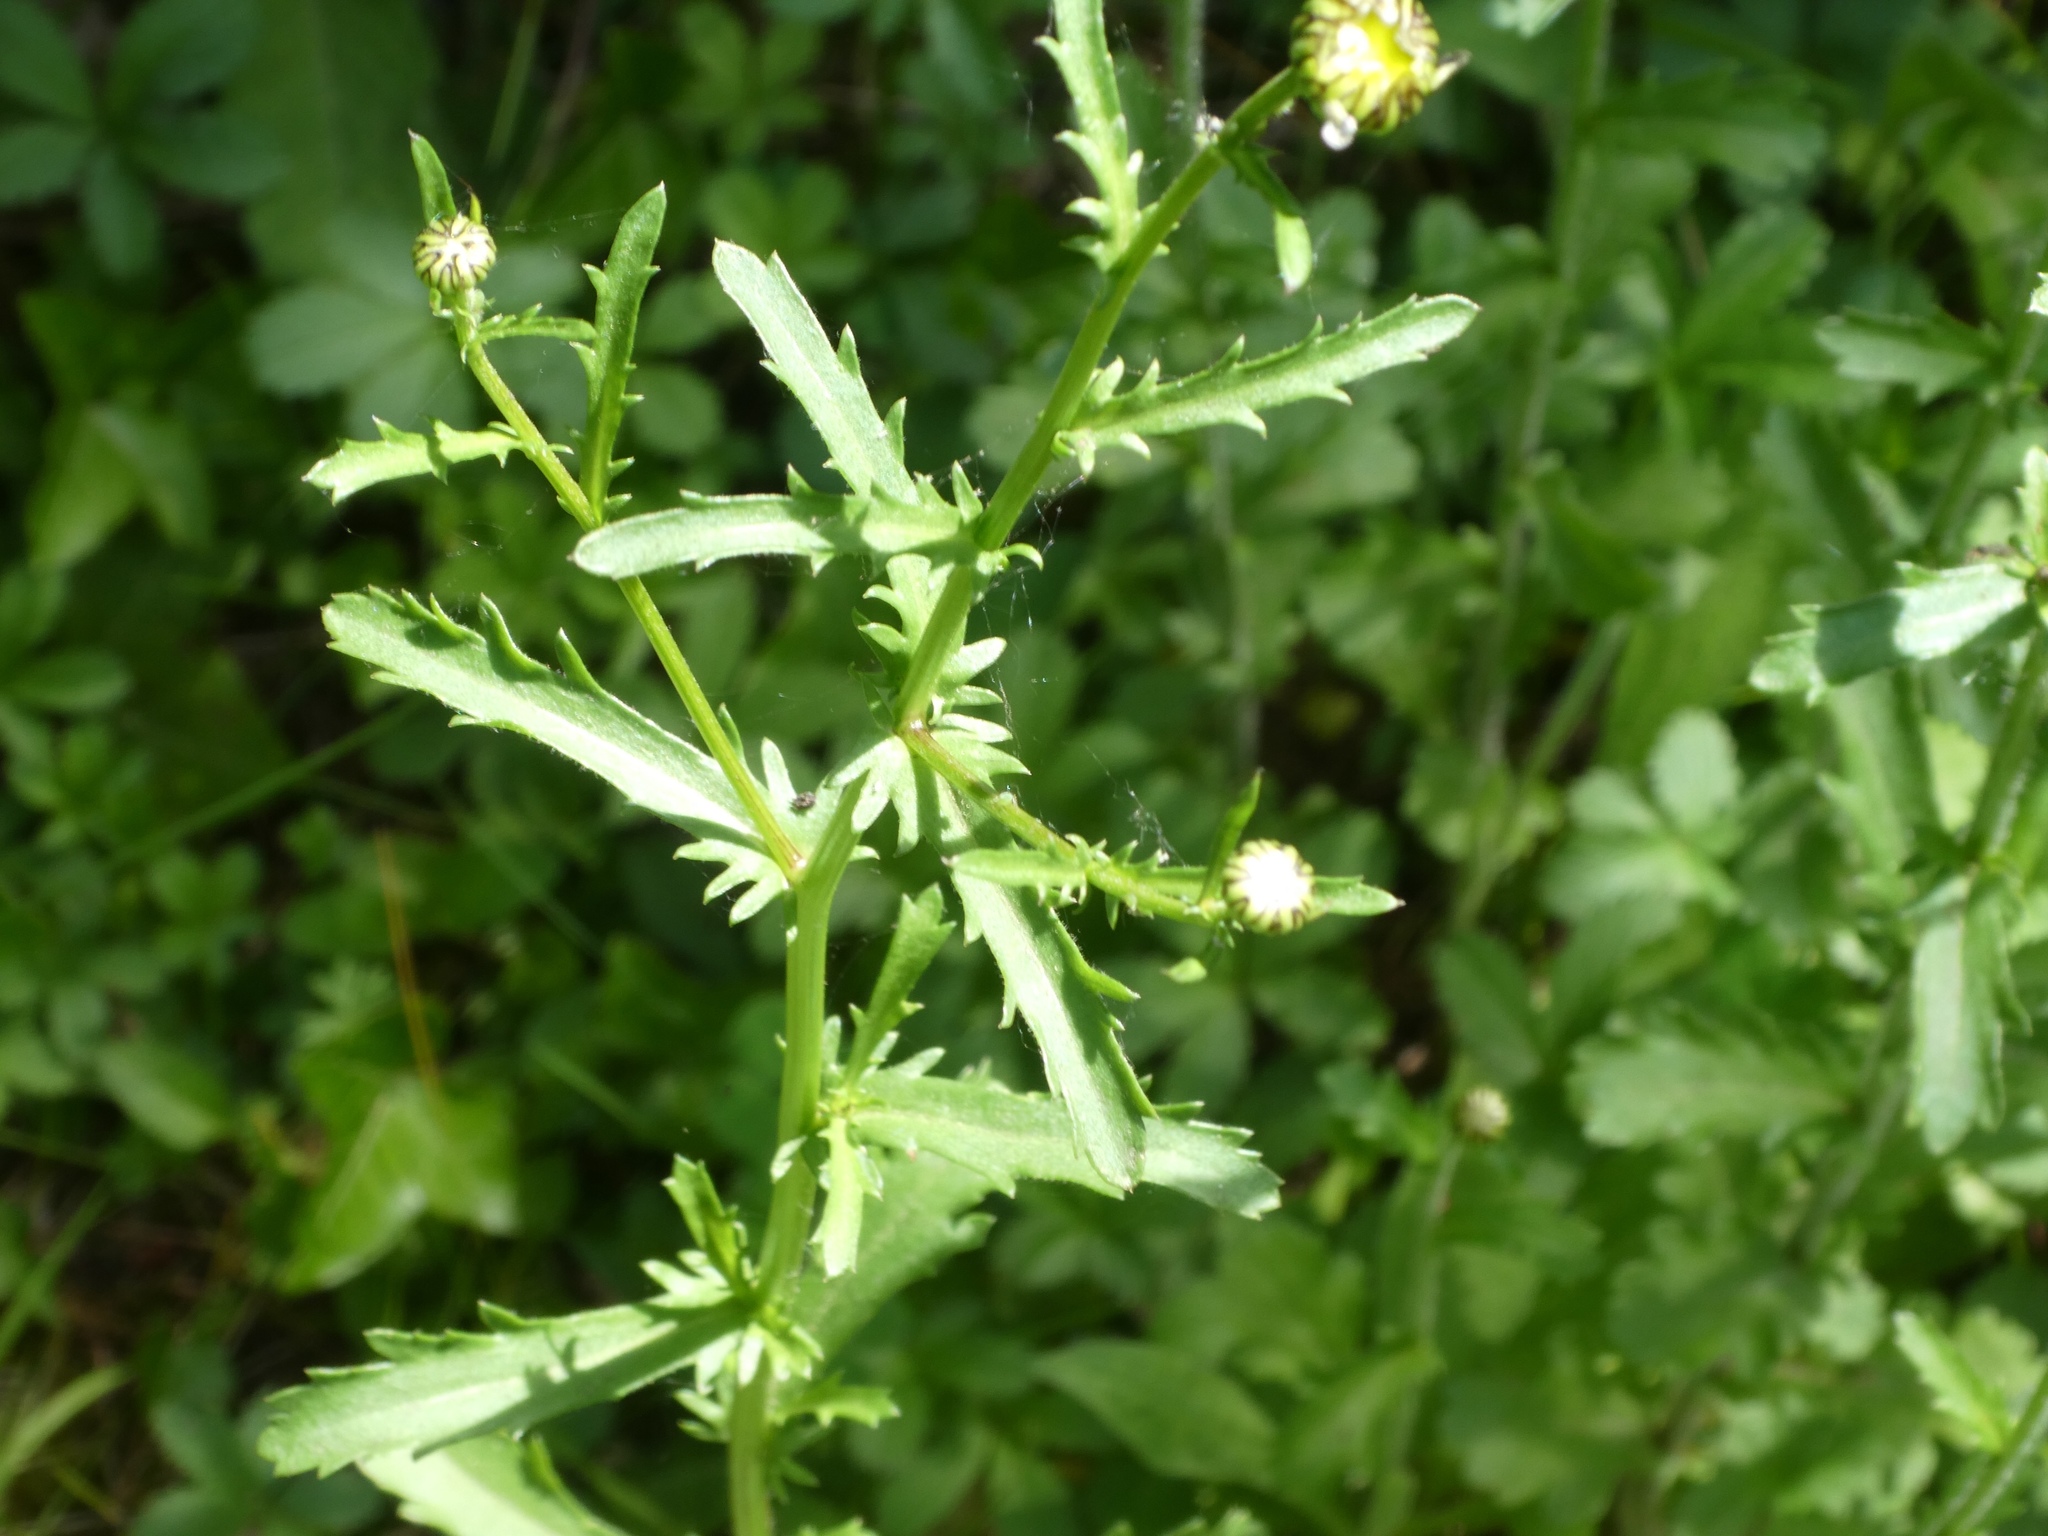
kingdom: Plantae
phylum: Tracheophyta
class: Magnoliopsida
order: Asterales
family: Asteraceae
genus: Leucanthemum
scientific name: Leucanthemum vulgare
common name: Oxeye daisy
